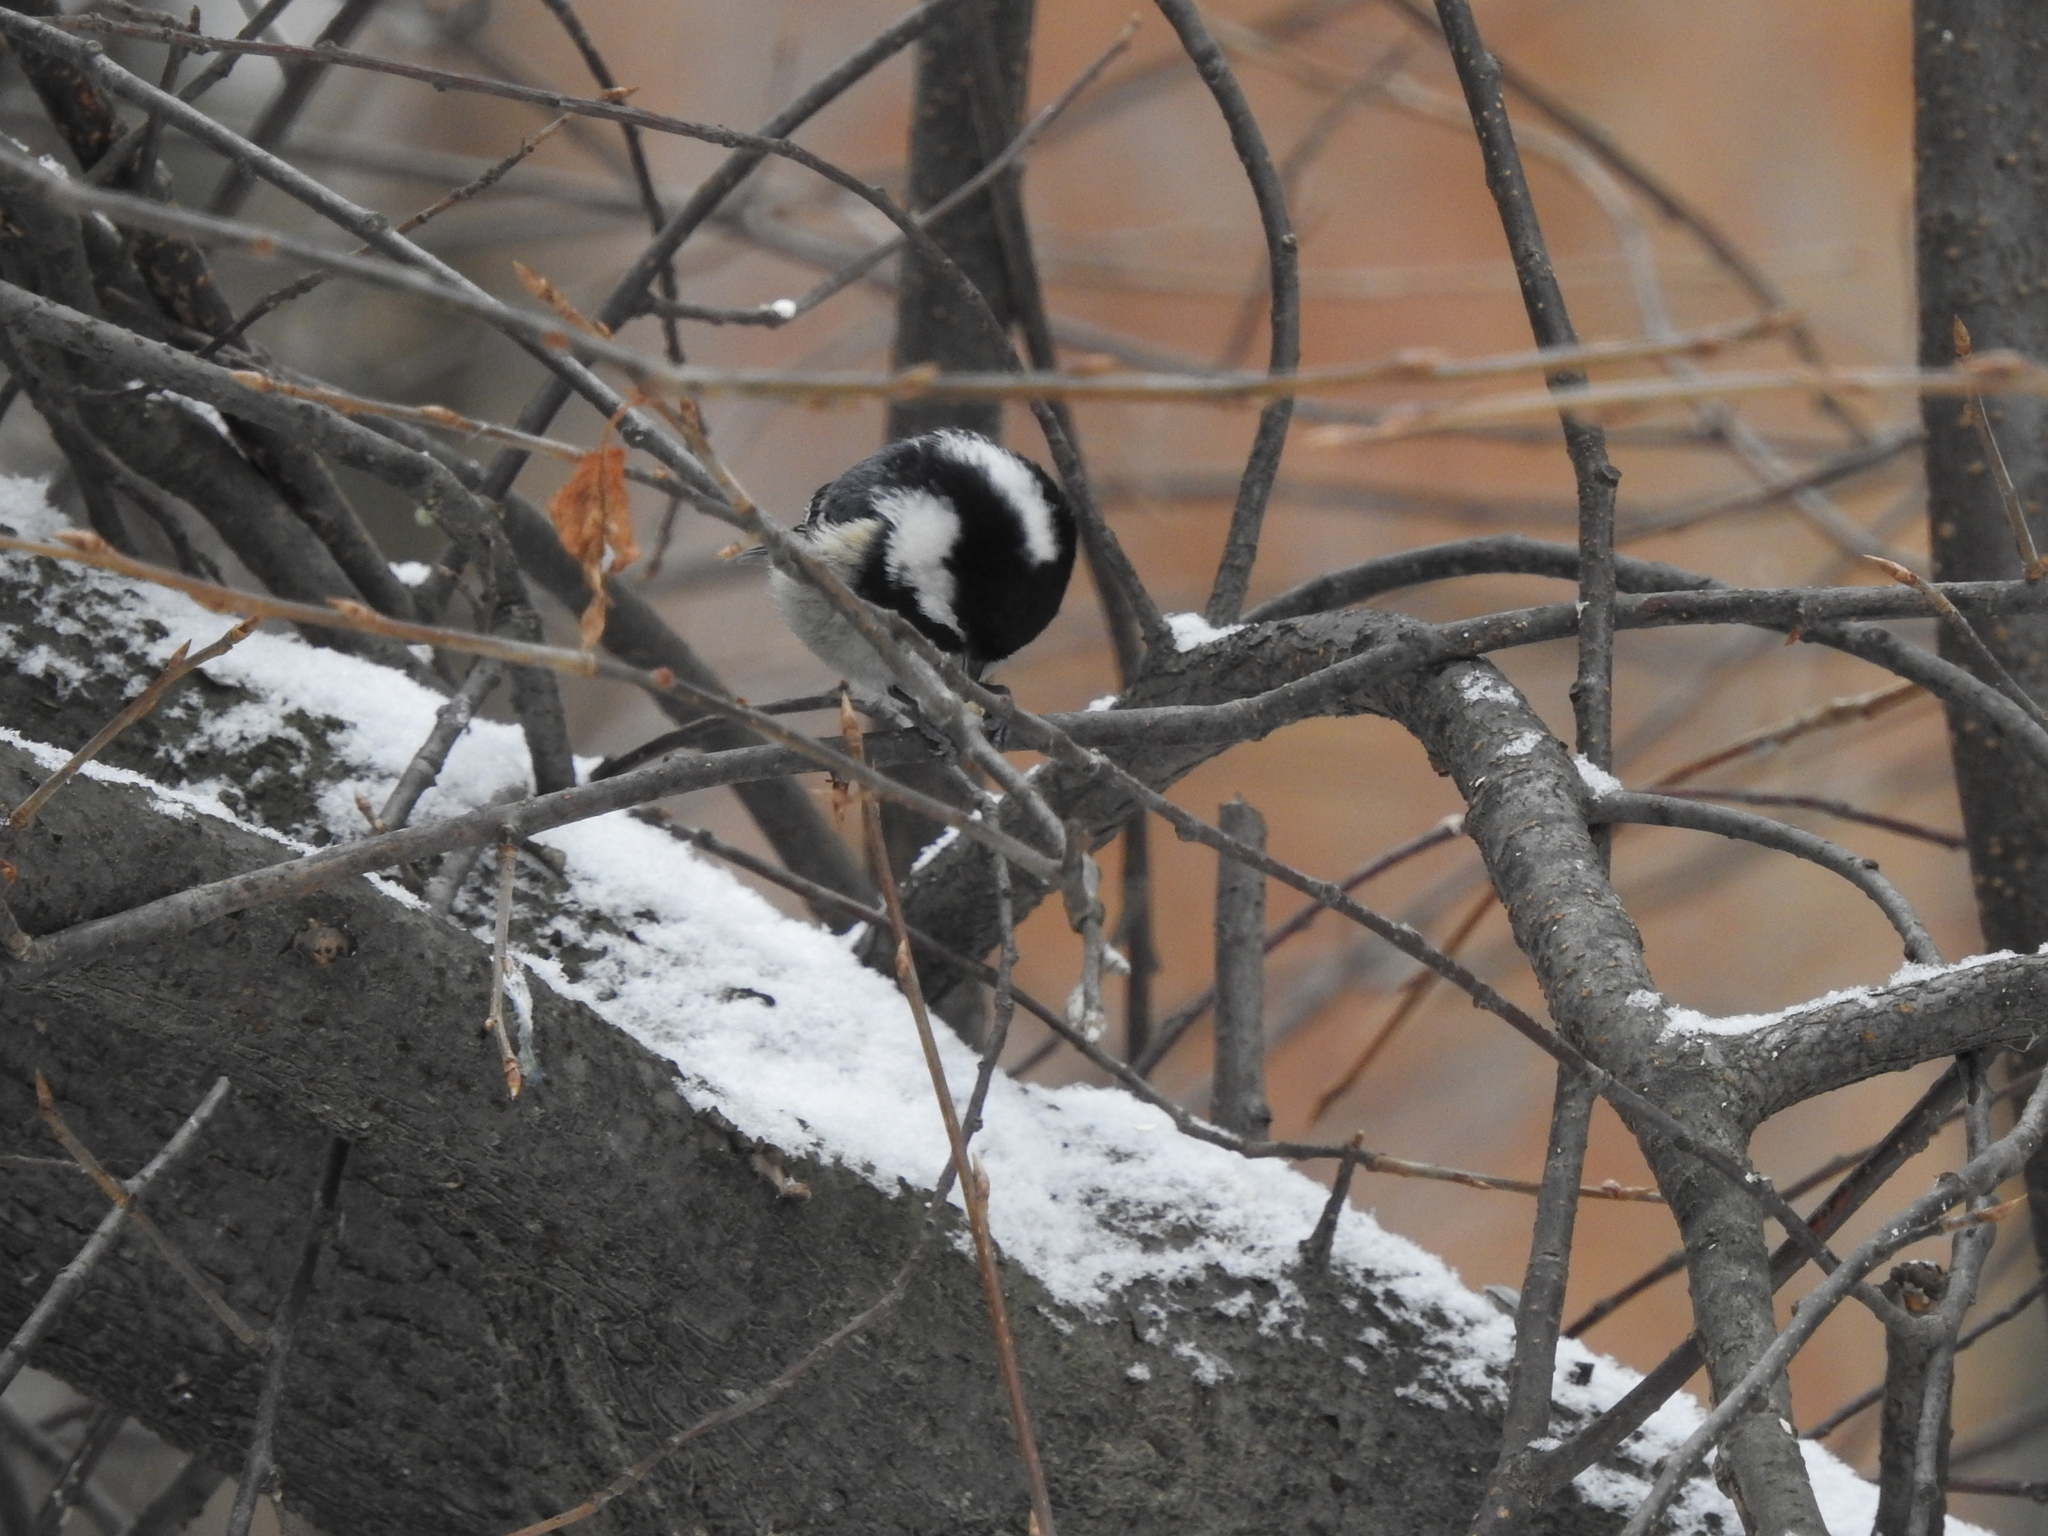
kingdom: Animalia
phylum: Chordata
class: Aves
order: Passeriformes
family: Paridae
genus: Periparus
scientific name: Periparus ater
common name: Coal tit
